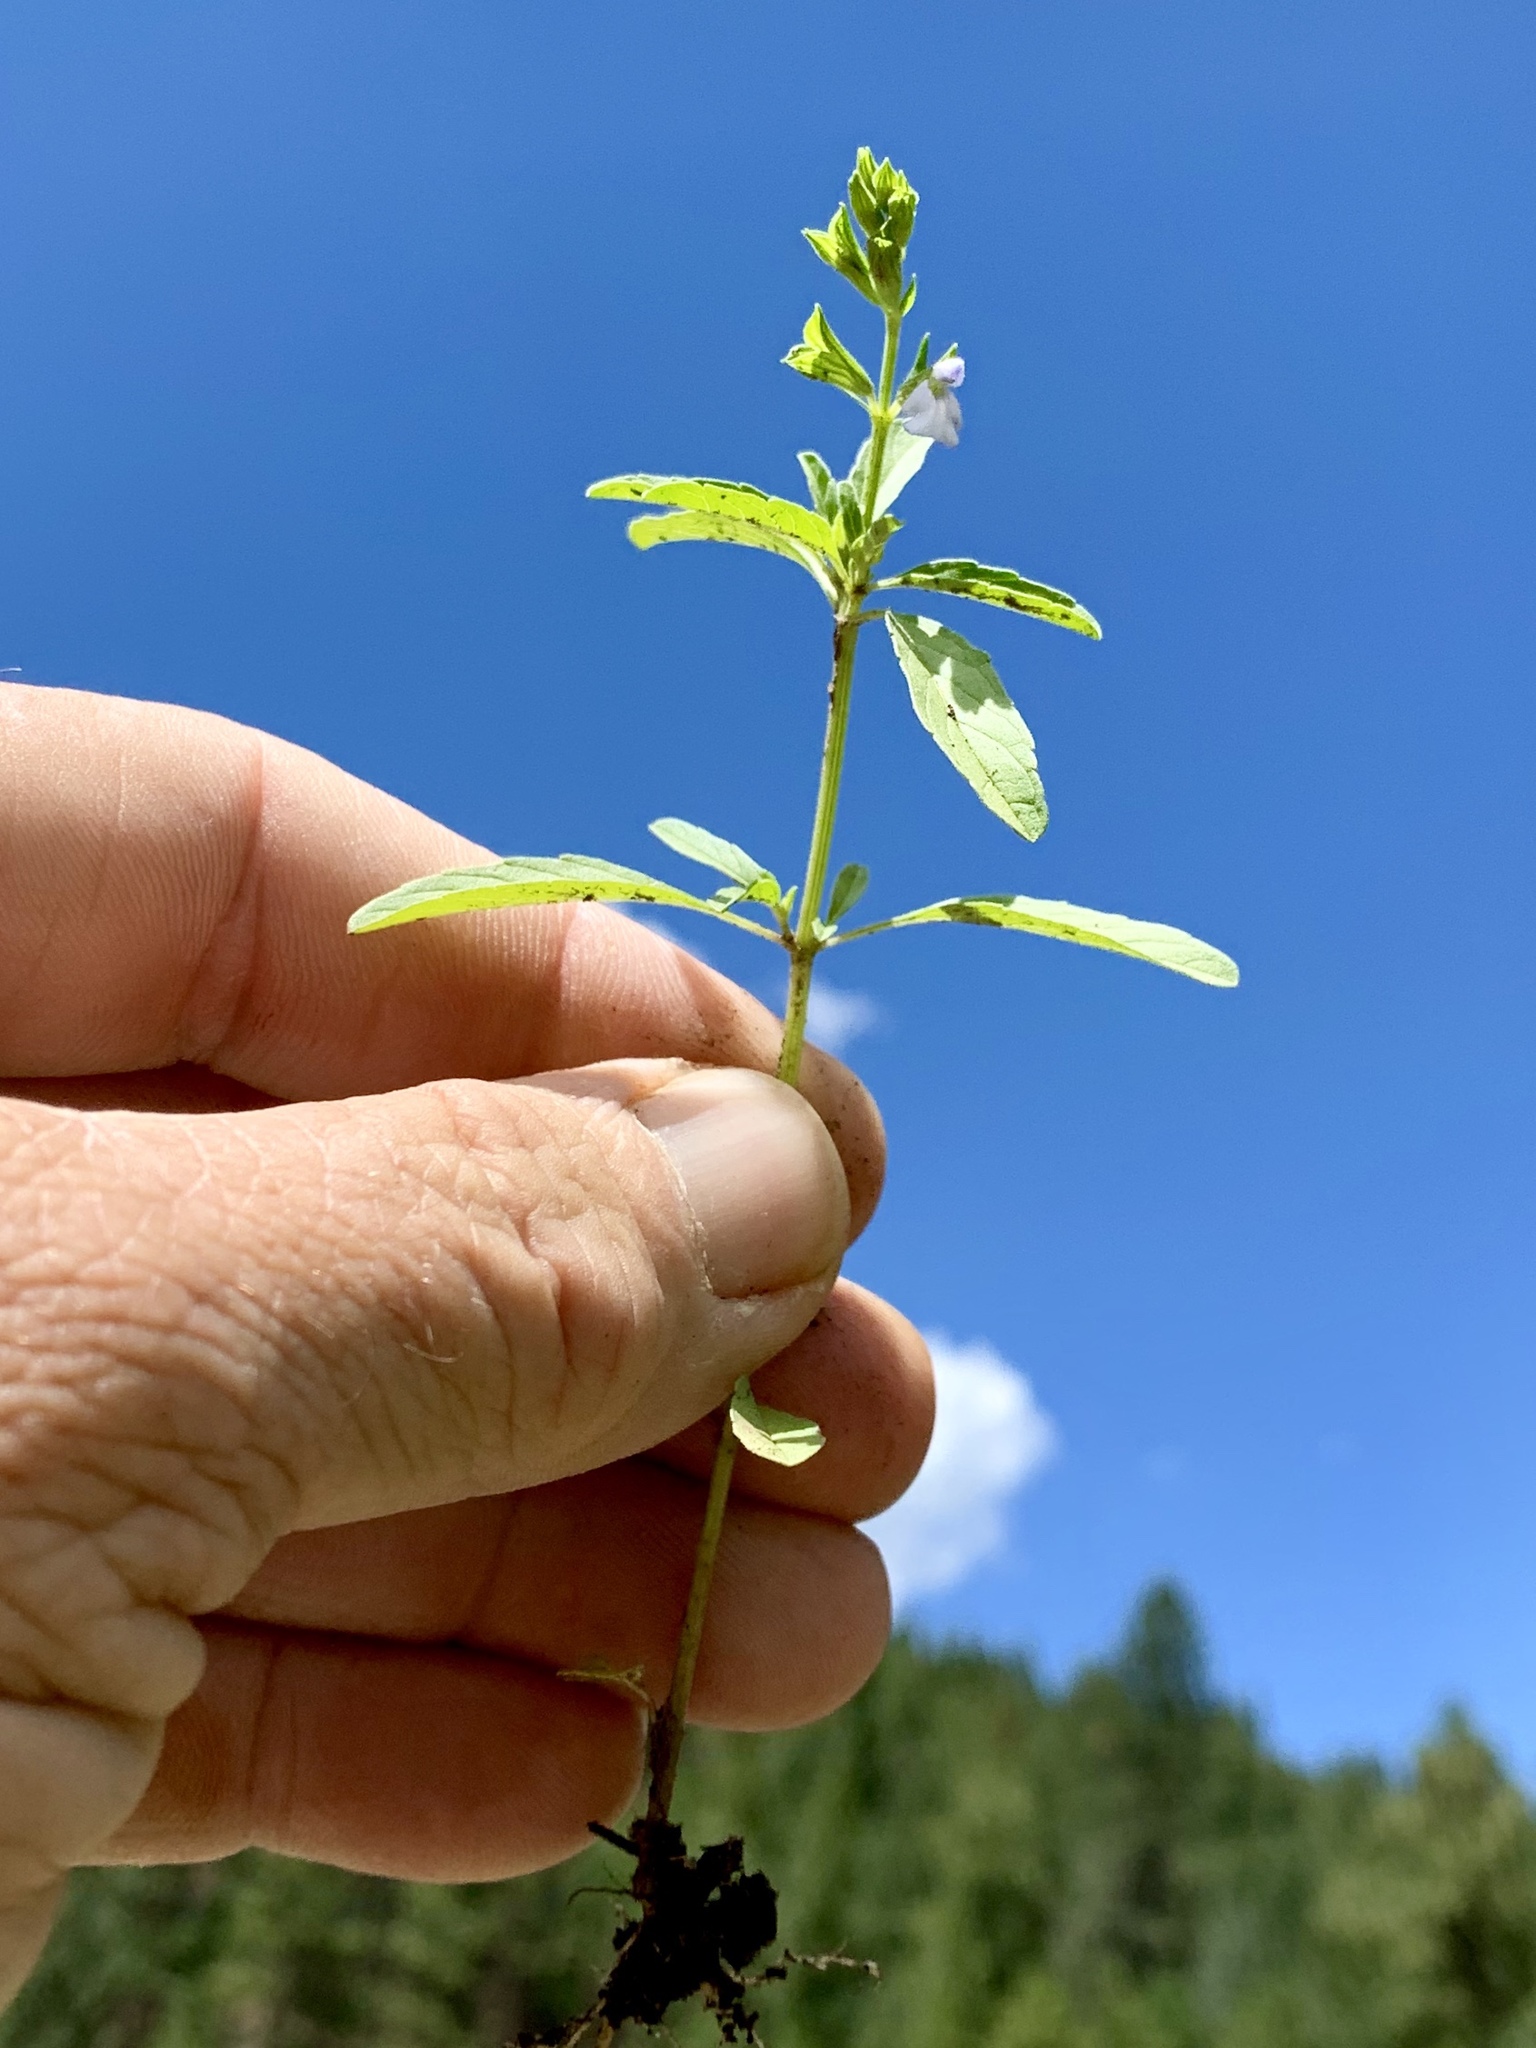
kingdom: Plantae
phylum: Tracheophyta
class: Magnoliopsida
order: Lamiales
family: Lamiaceae
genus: Salvia
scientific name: Salvia reflexa
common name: Mintweed
